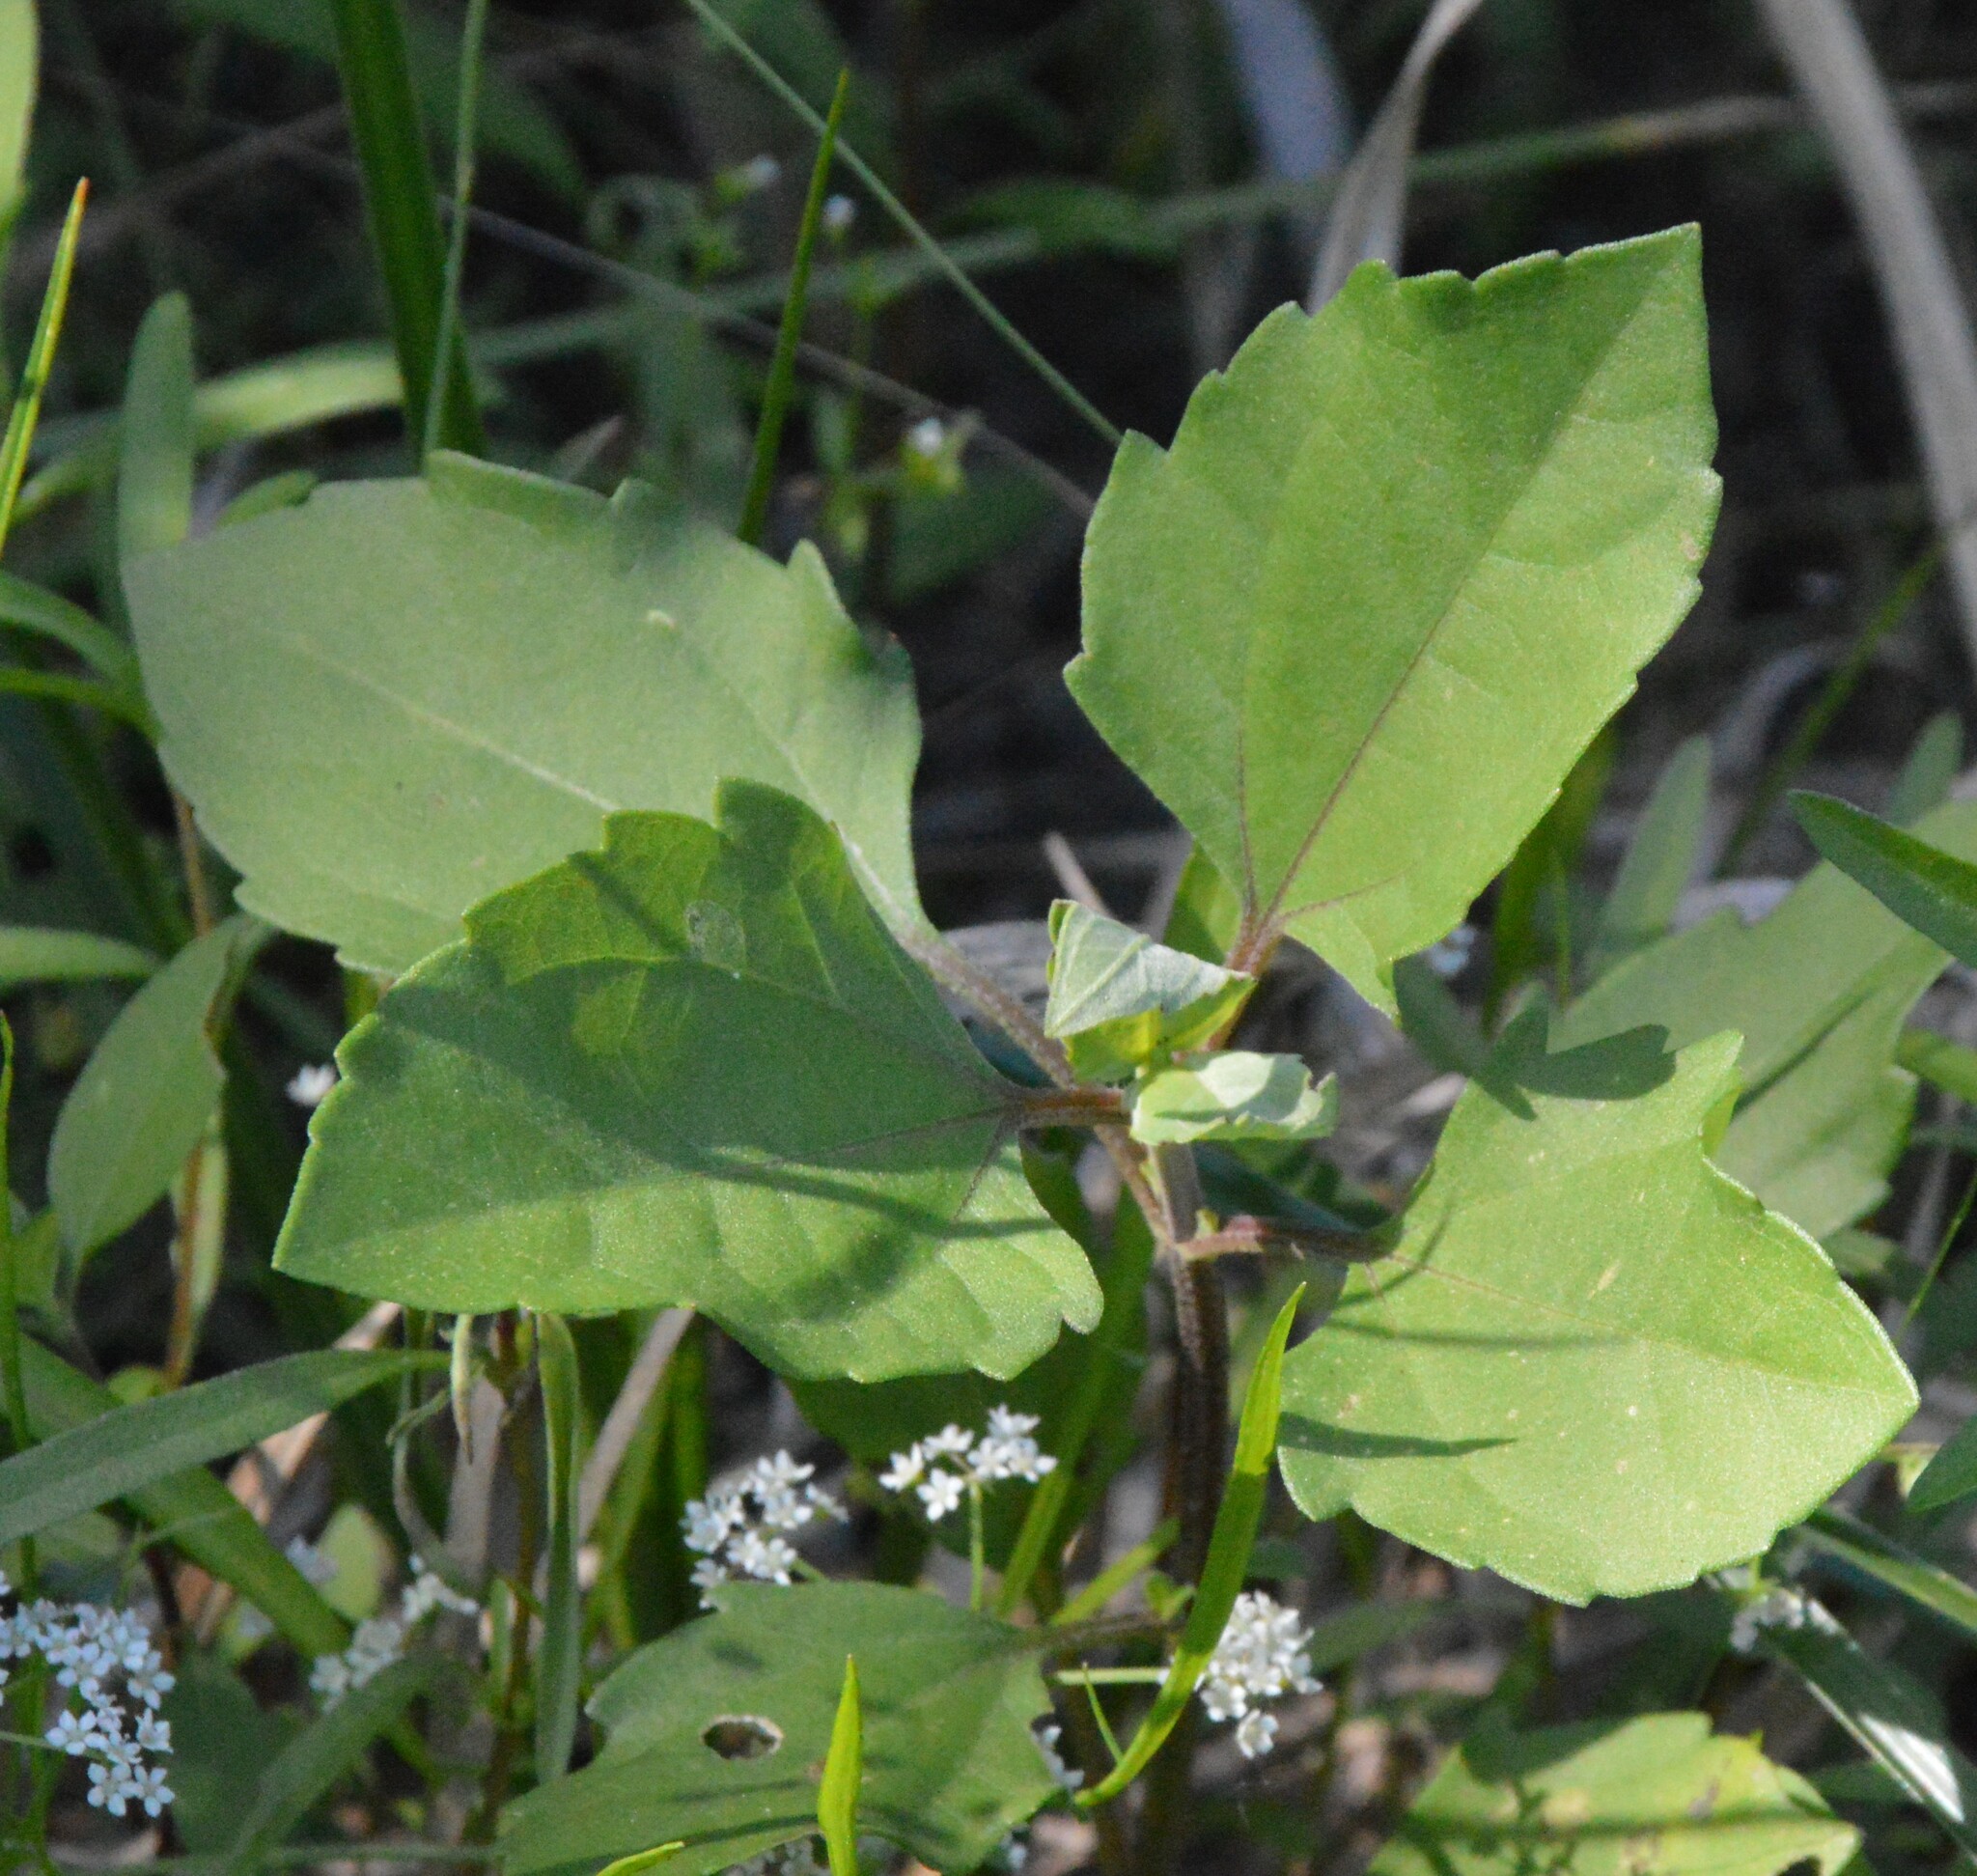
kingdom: Plantae
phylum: Tracheophyta
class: Magnoliopsida
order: Asterales
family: Asteraceae
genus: Iva
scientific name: Iva annua
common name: Marsh-elder
